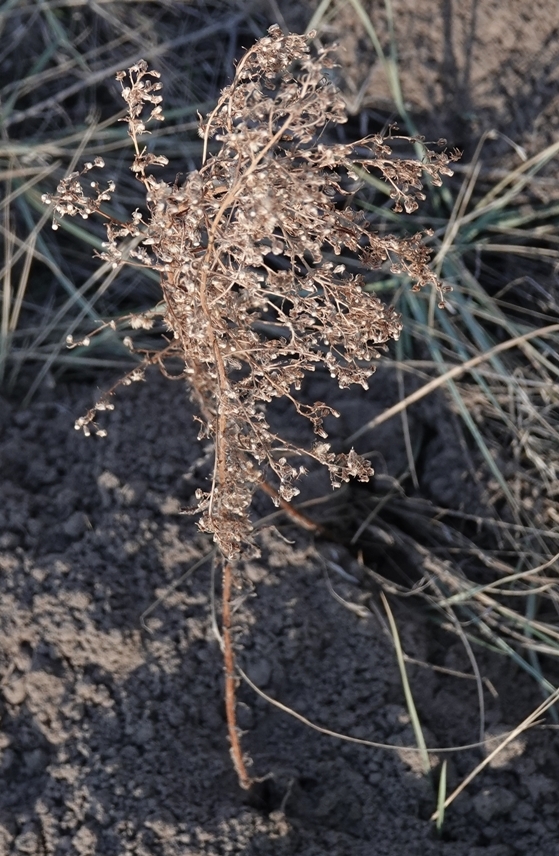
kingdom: Plantae
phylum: Tracheophyta
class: Magnoliopsida
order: Asterales
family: Asteraceae
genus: Erigeron
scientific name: Erigeron canadensis
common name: Canadian fleabane
